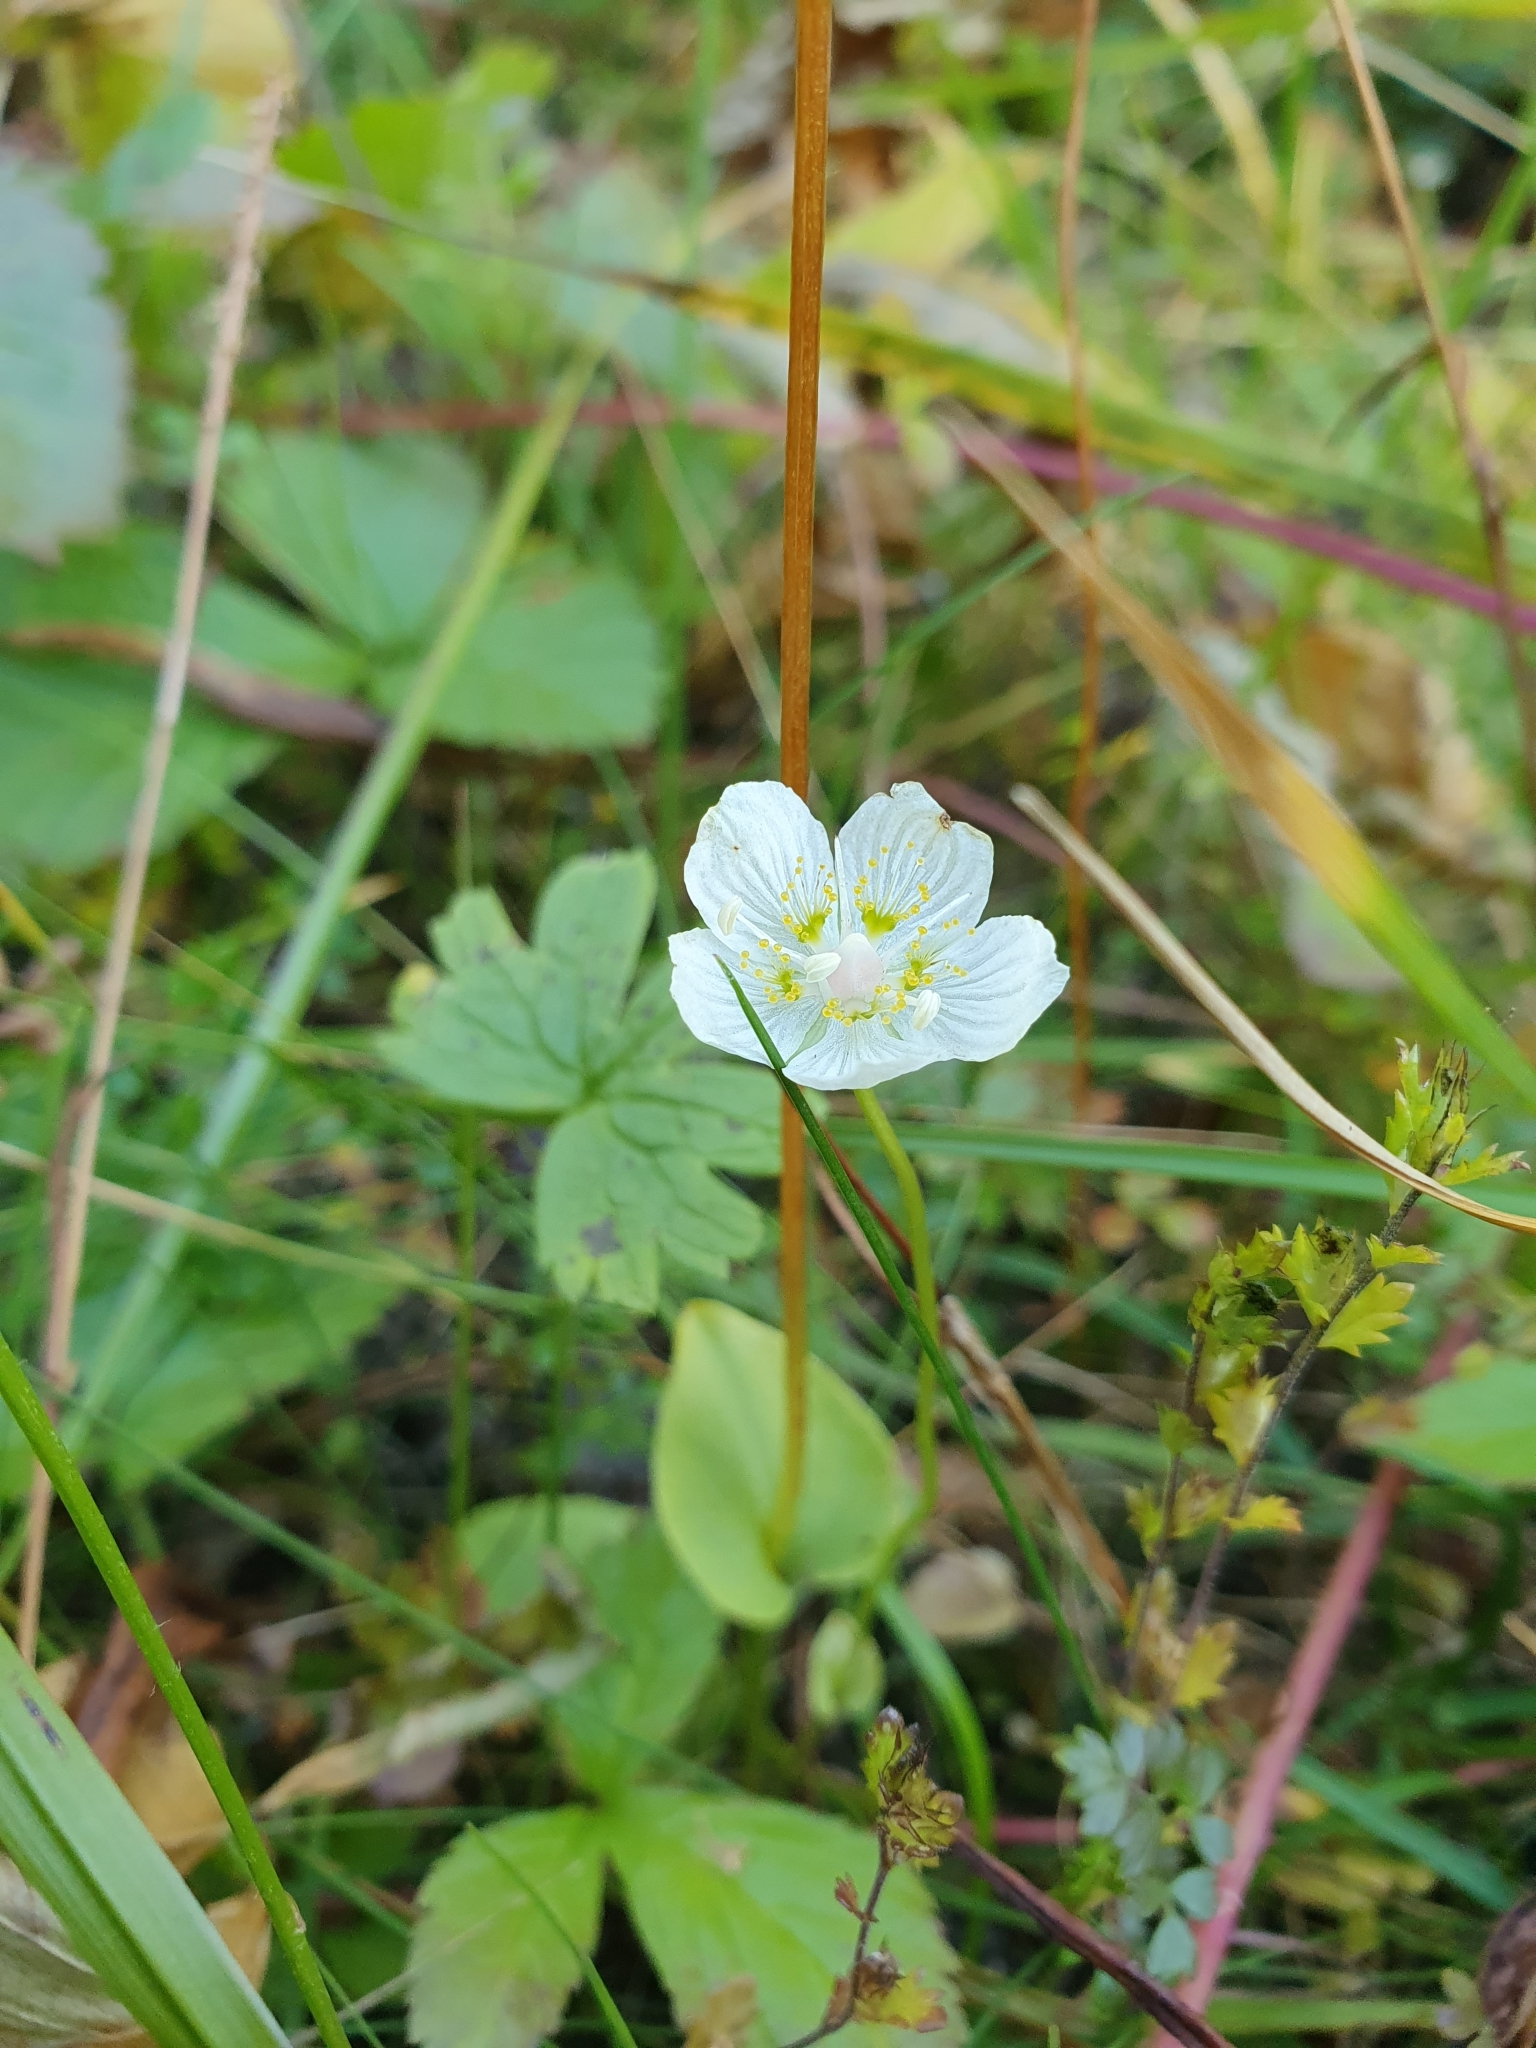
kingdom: Plantae
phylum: Tracheophyta
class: Magnoliopsida
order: Celastrales
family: Parnassiaceae
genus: Parnassia
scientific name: Parnassia palustris
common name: Grass-of-parnassus
